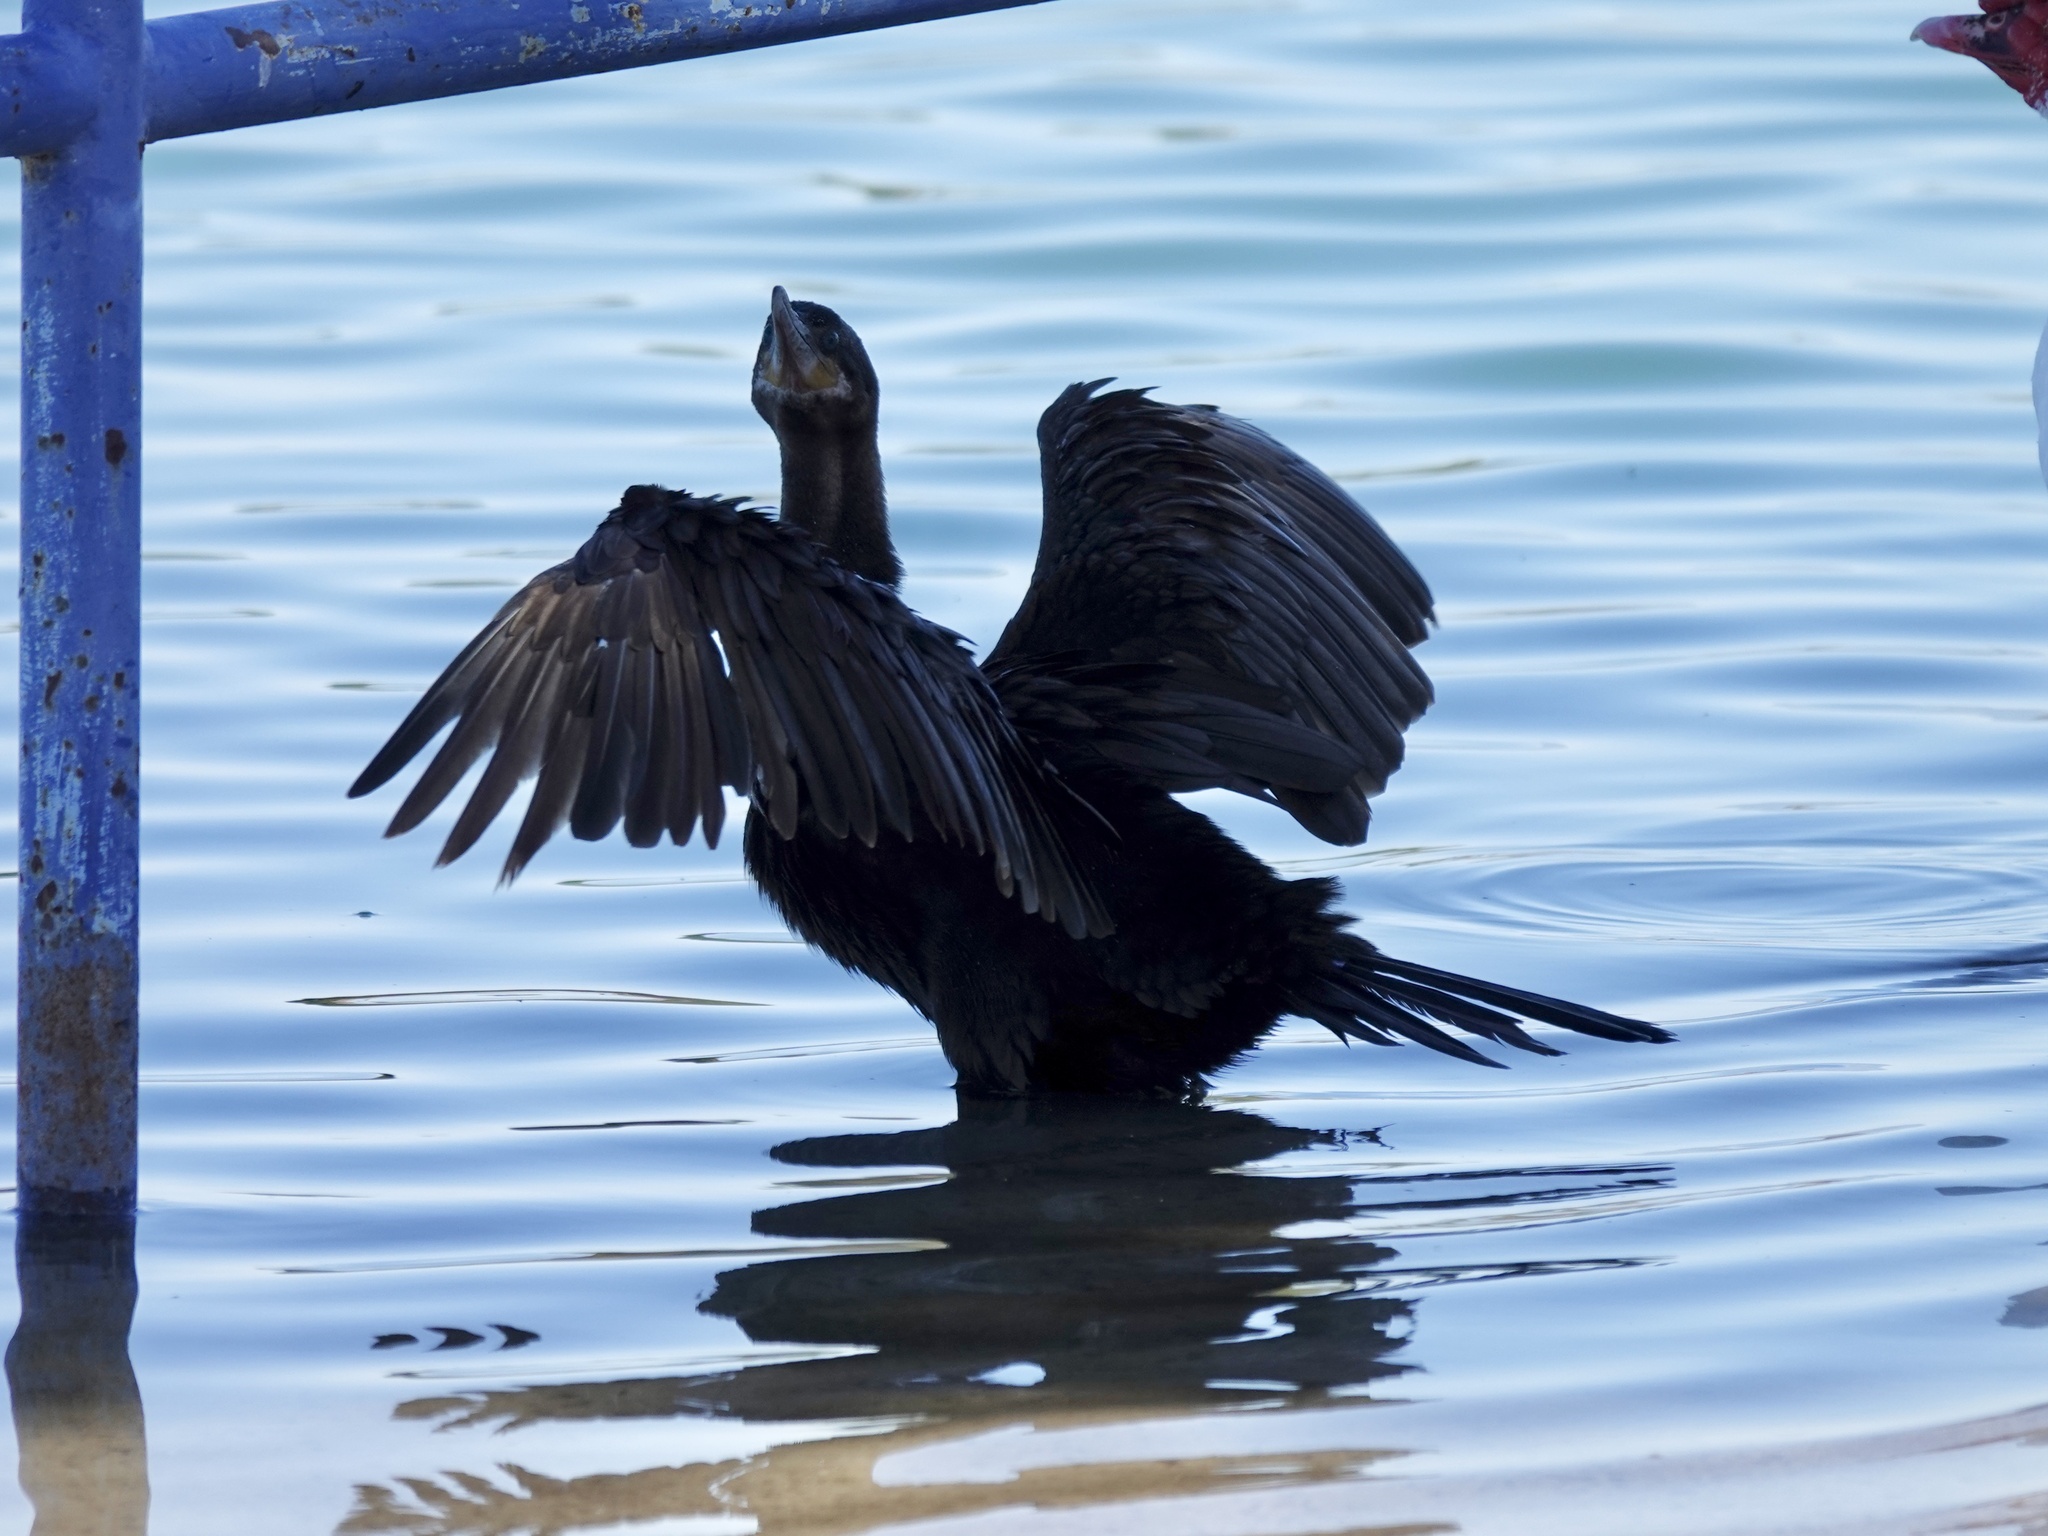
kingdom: Animalia
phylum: Chordata
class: Aves
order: Suliformes
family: Phalacrocoracidae
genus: Phalacrocorax
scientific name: Phalacrocorax brasilianus
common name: Neotropic cormorant
